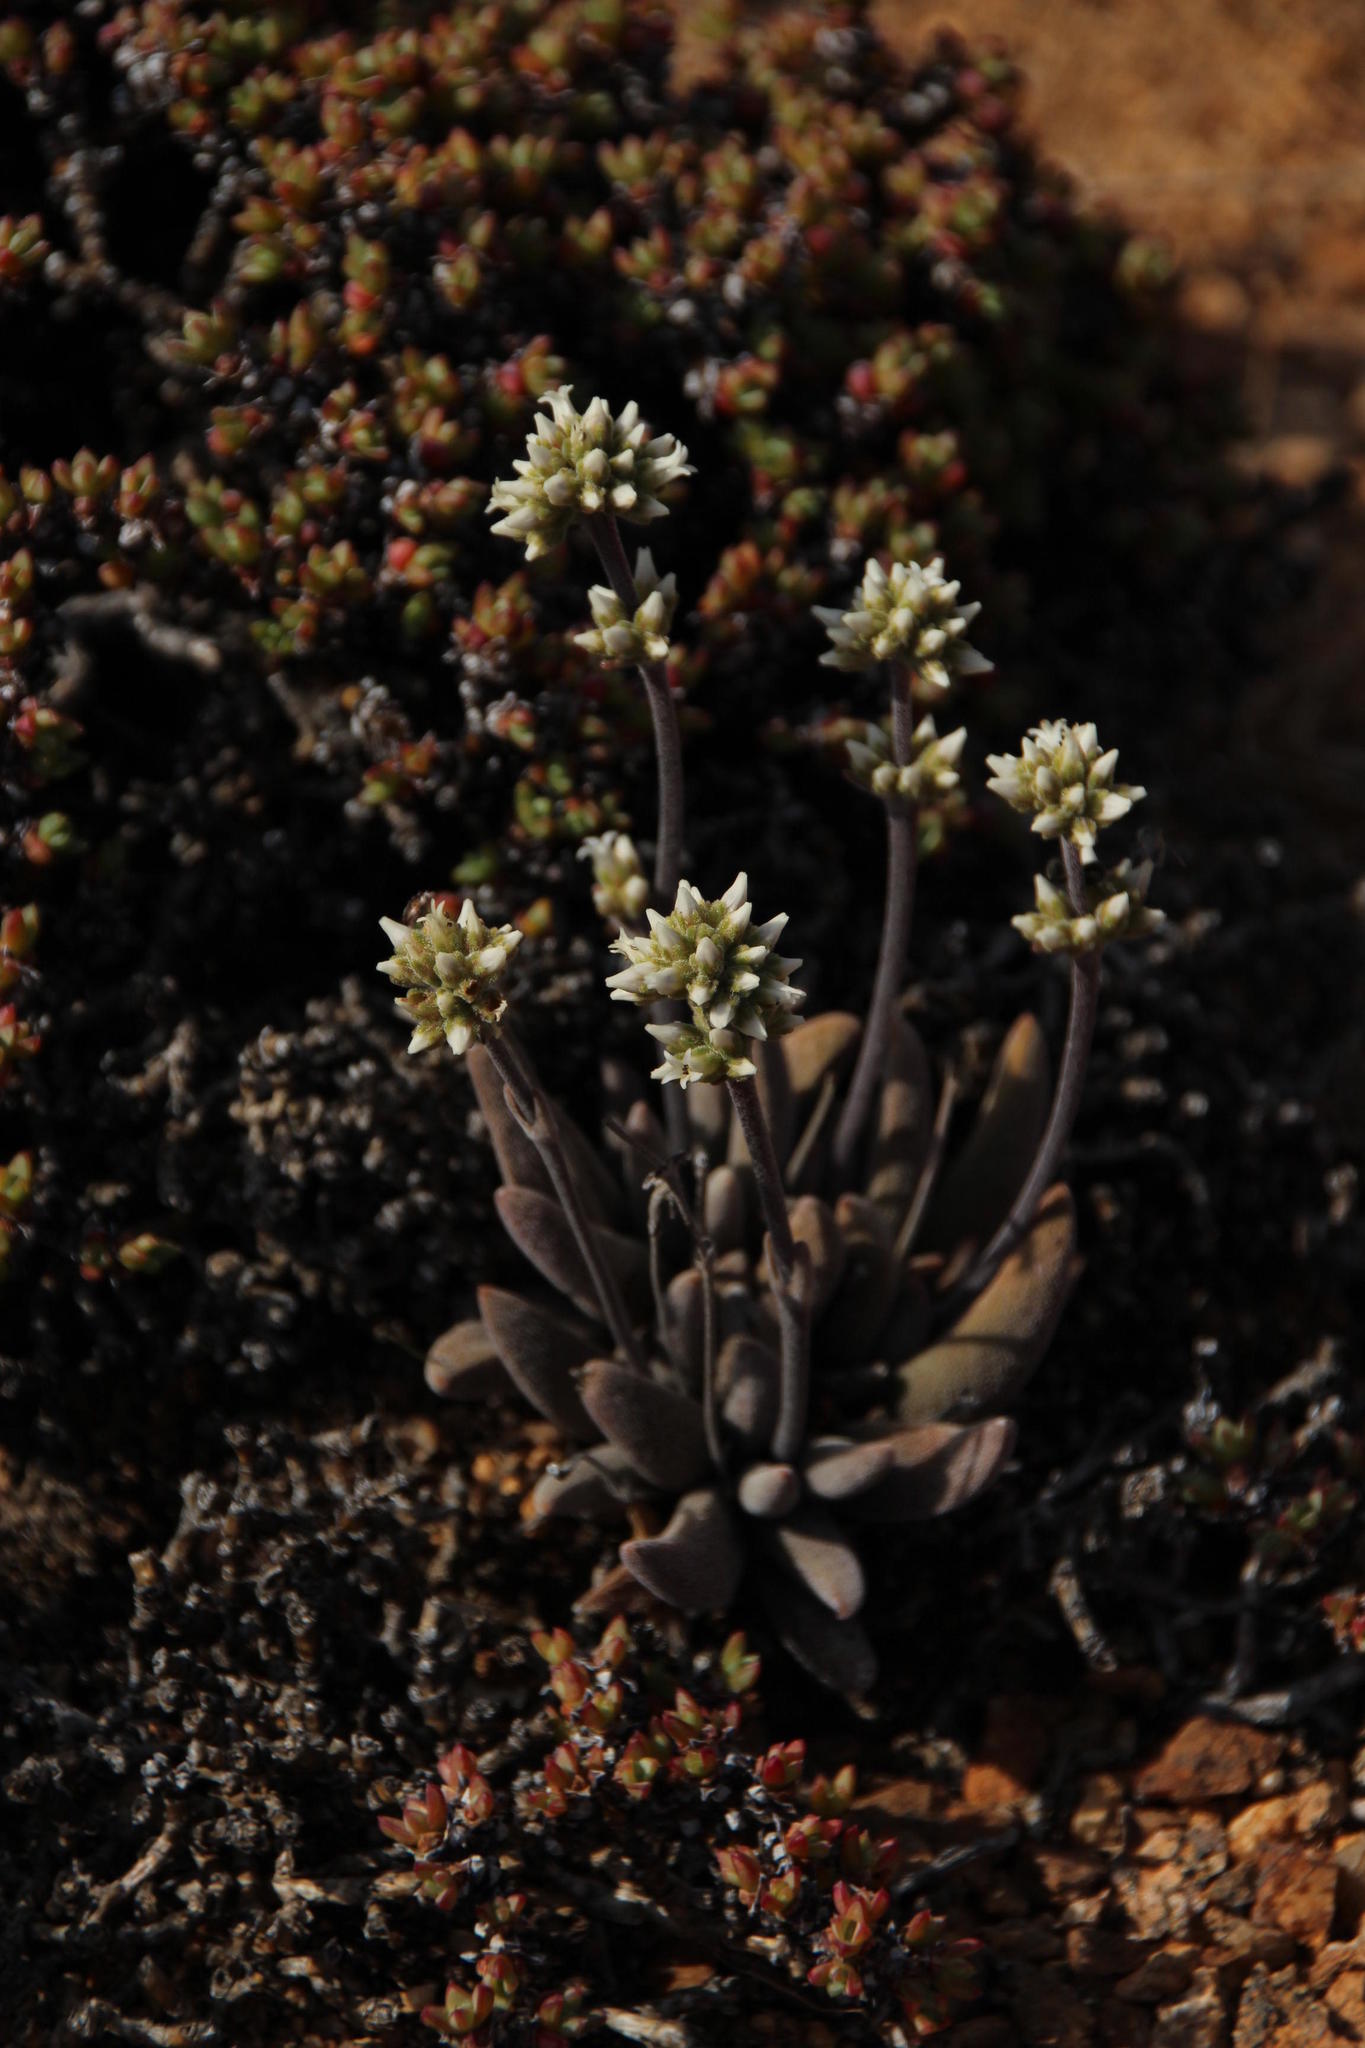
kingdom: Plantae
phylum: Tracheophyta
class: Magnoliopsida
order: Saxifragales
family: Crassulaceae
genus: Crassula
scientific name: Crassula namaquensis
